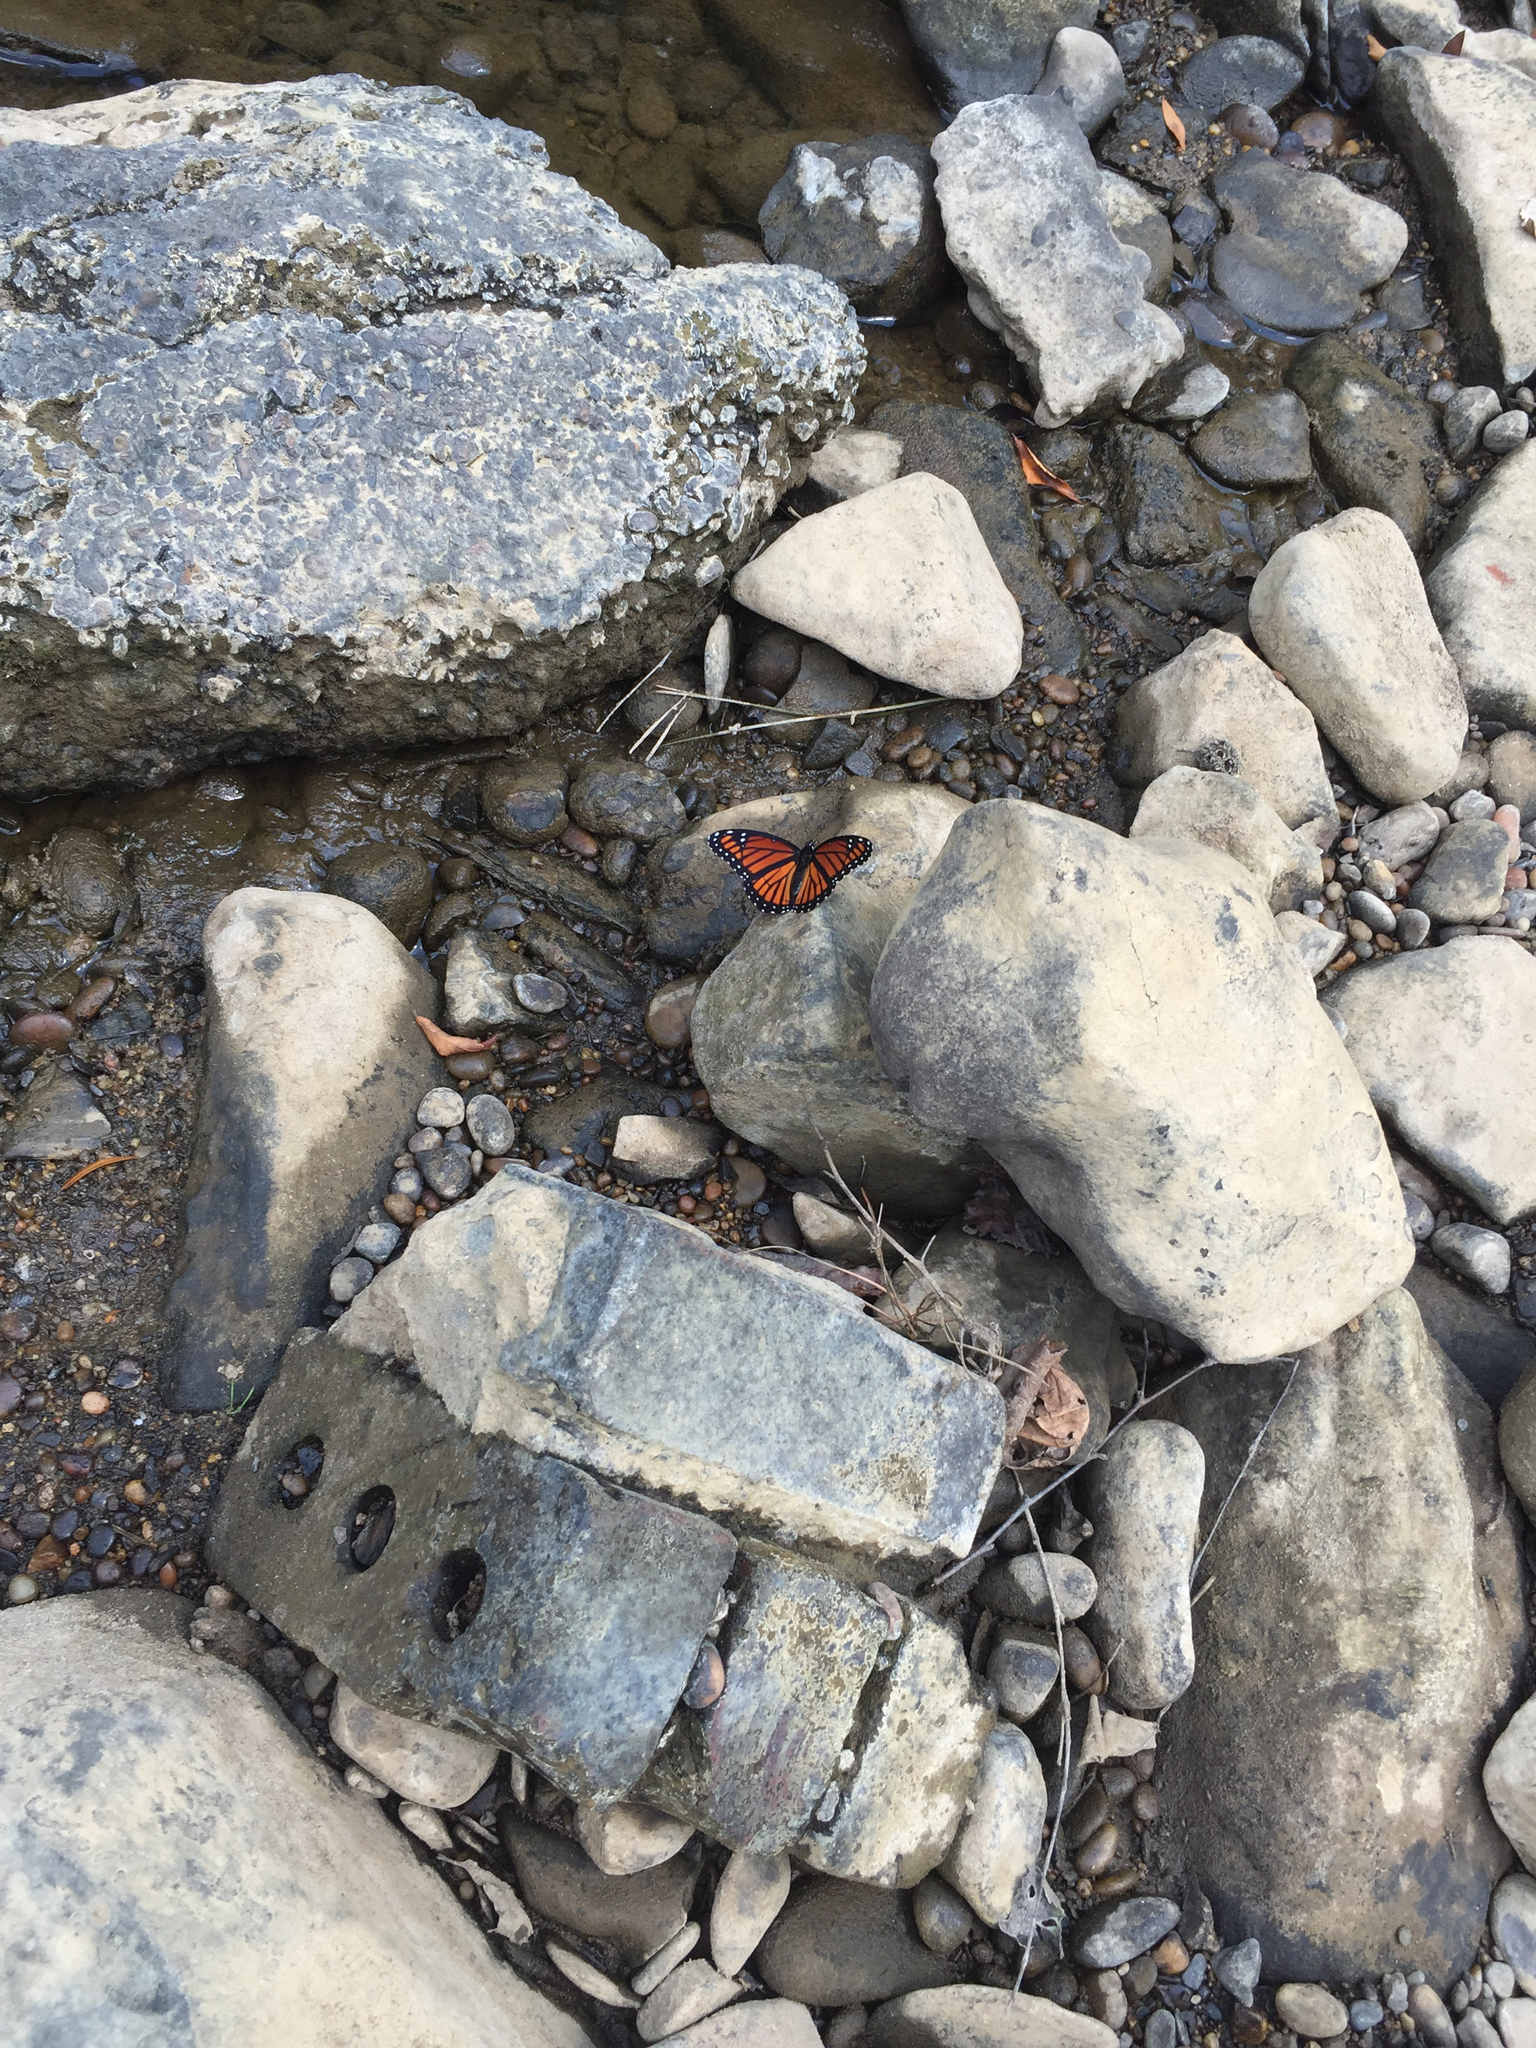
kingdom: Animalia
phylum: Arthropoda
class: Insecta
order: Lepidoptera
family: Nymphalidae
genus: Limenitis
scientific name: Limenitis archippus
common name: Viceroy
